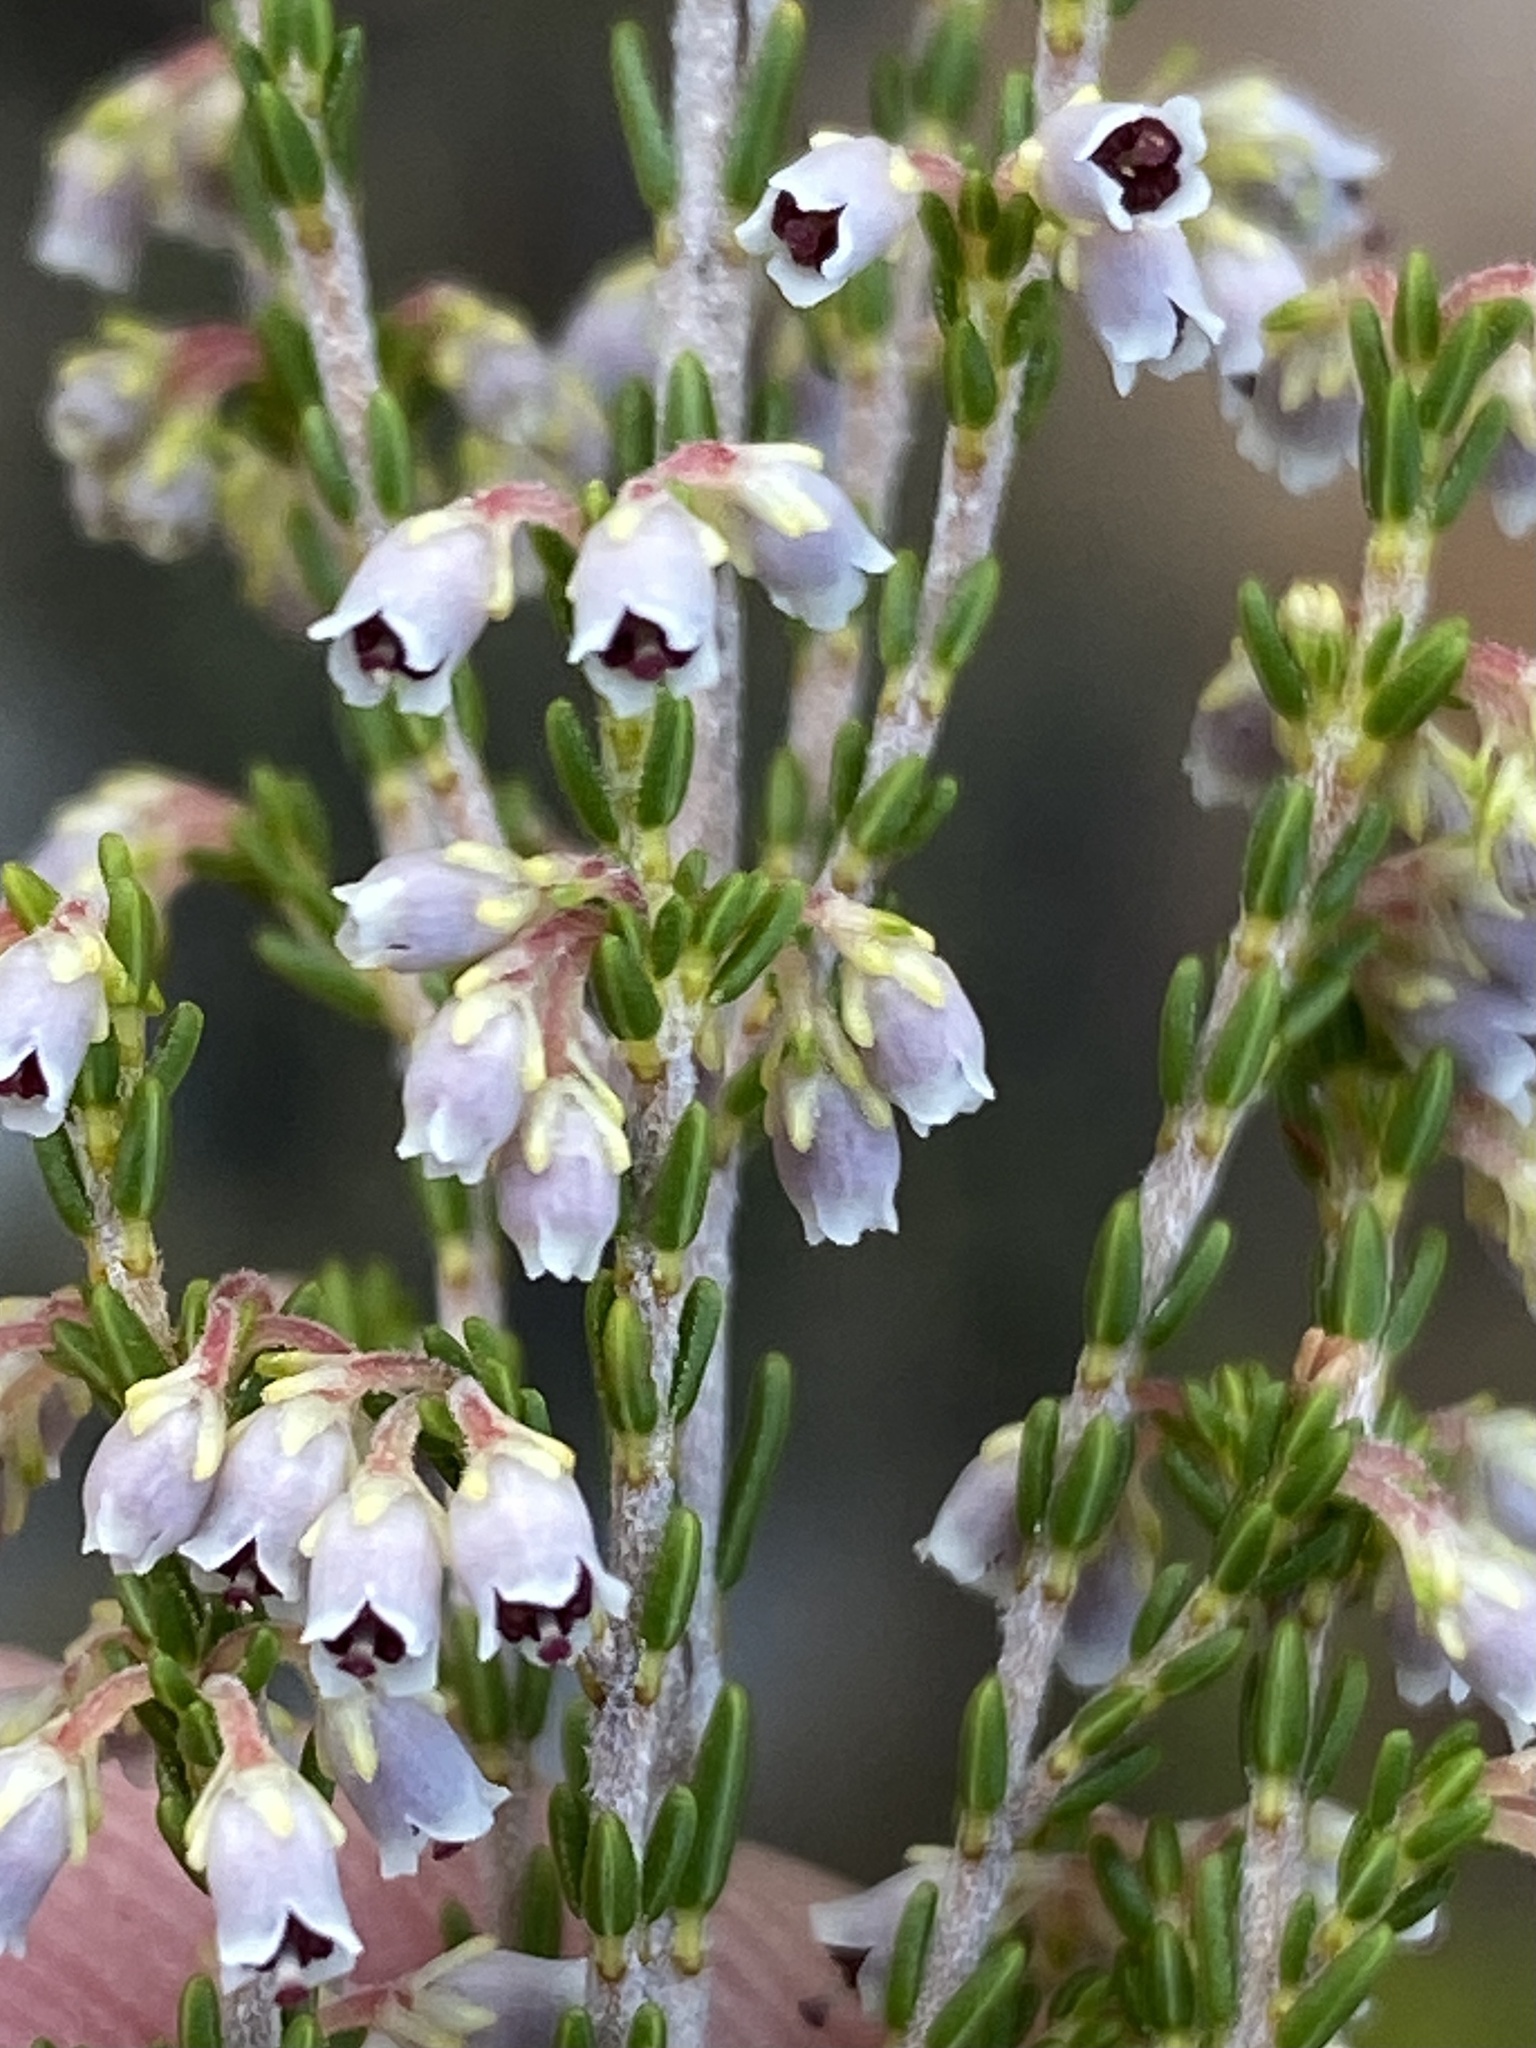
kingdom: Plantae
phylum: Tracheophyta
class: Magnoliopsida
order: Ericales
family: Ericaceae
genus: Erica
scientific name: Erica inamoena
